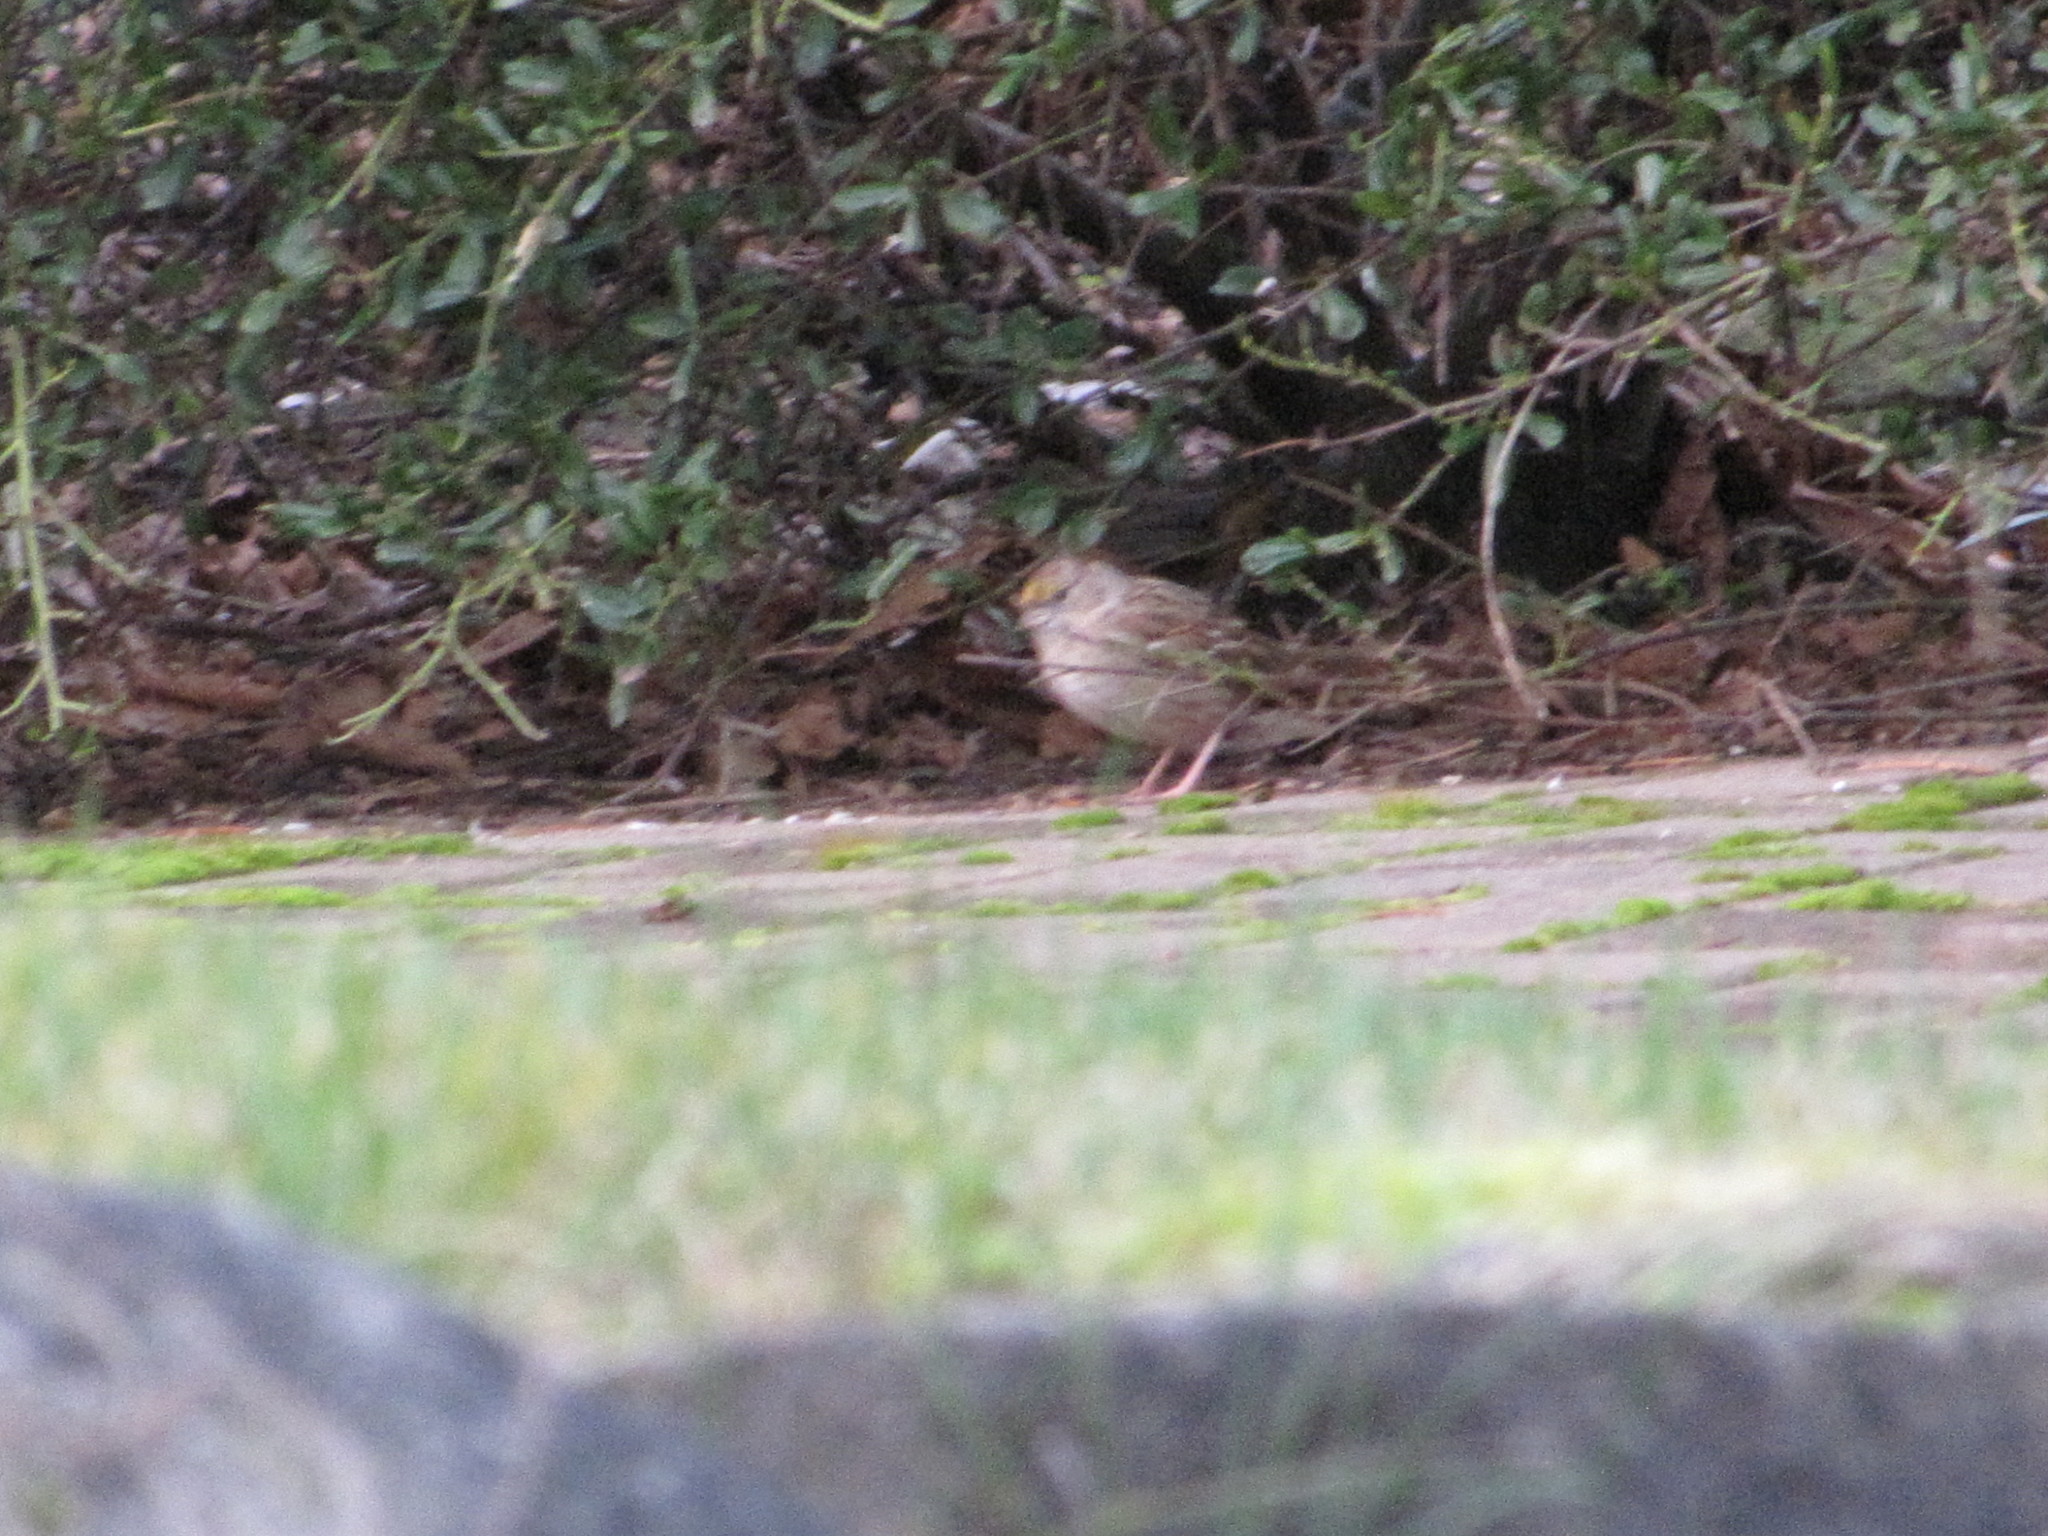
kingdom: Animalia
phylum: Chordata
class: Aves
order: Passeriformes
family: Passerellidae
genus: Zonotrichia
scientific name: Zonotrichia atricapilla
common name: Golden-crowned sparrow
